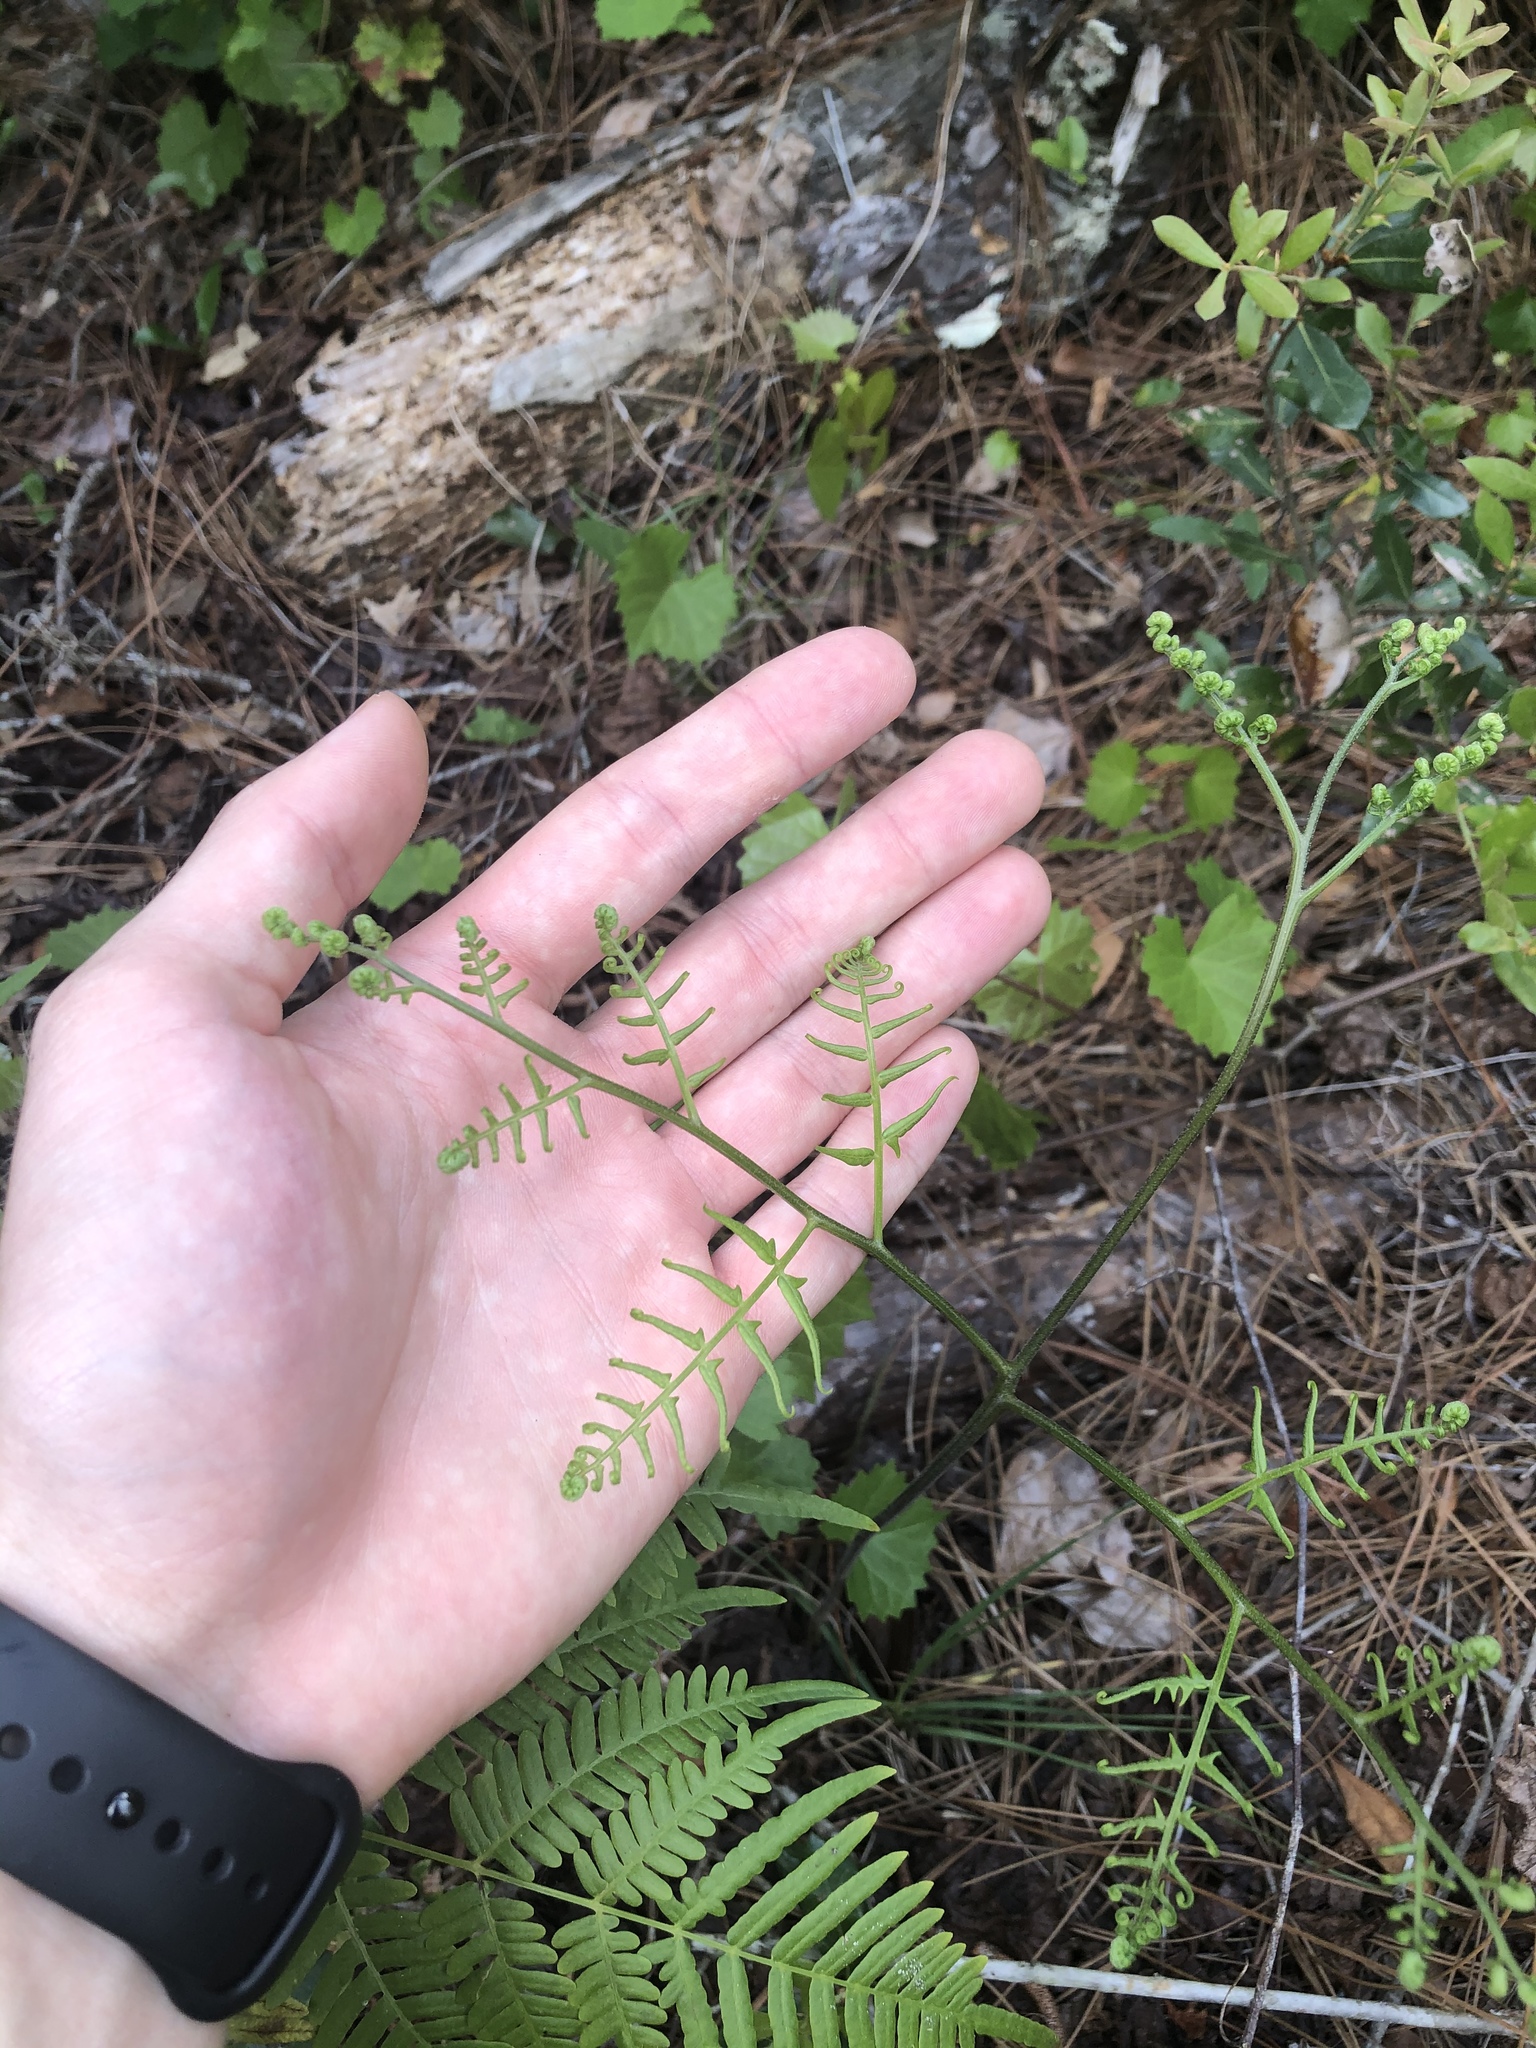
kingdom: Plantae
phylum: Tracheophyta
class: Polypodiopsida
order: Polypodiales
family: Dennstaedtiaceae
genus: Pteridium
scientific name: Pteridium
